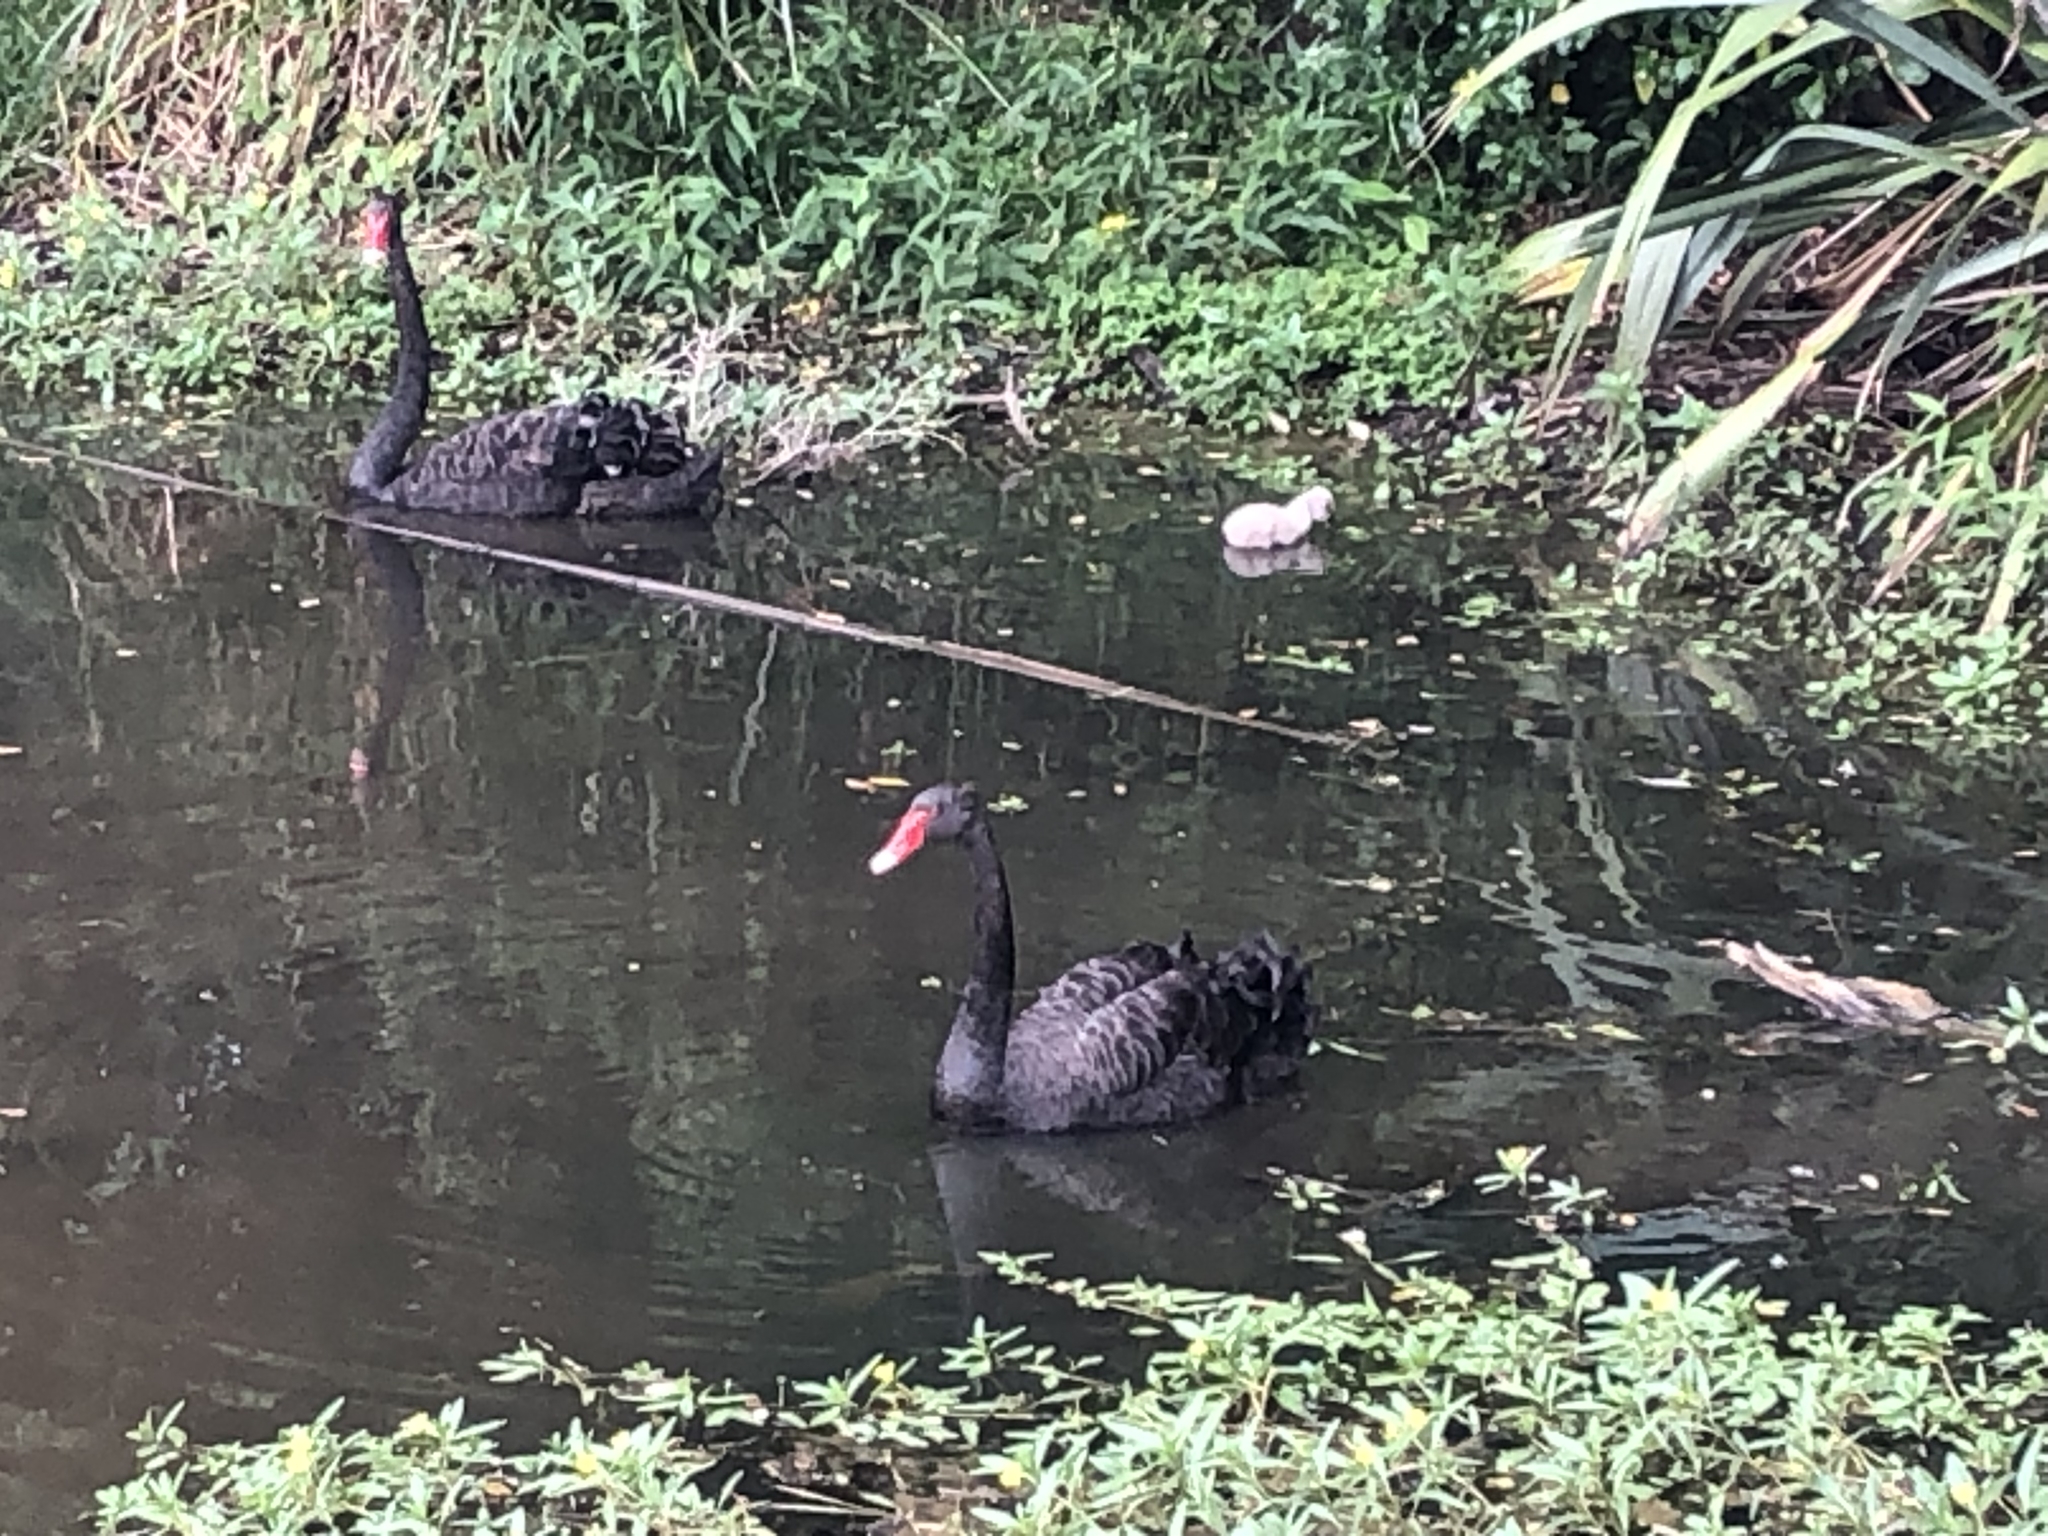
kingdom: Animalia
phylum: Chordata
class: Aves
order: Anseriformes
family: Anatidae
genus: Cygnus
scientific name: Cygnus atratus
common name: Black swan
